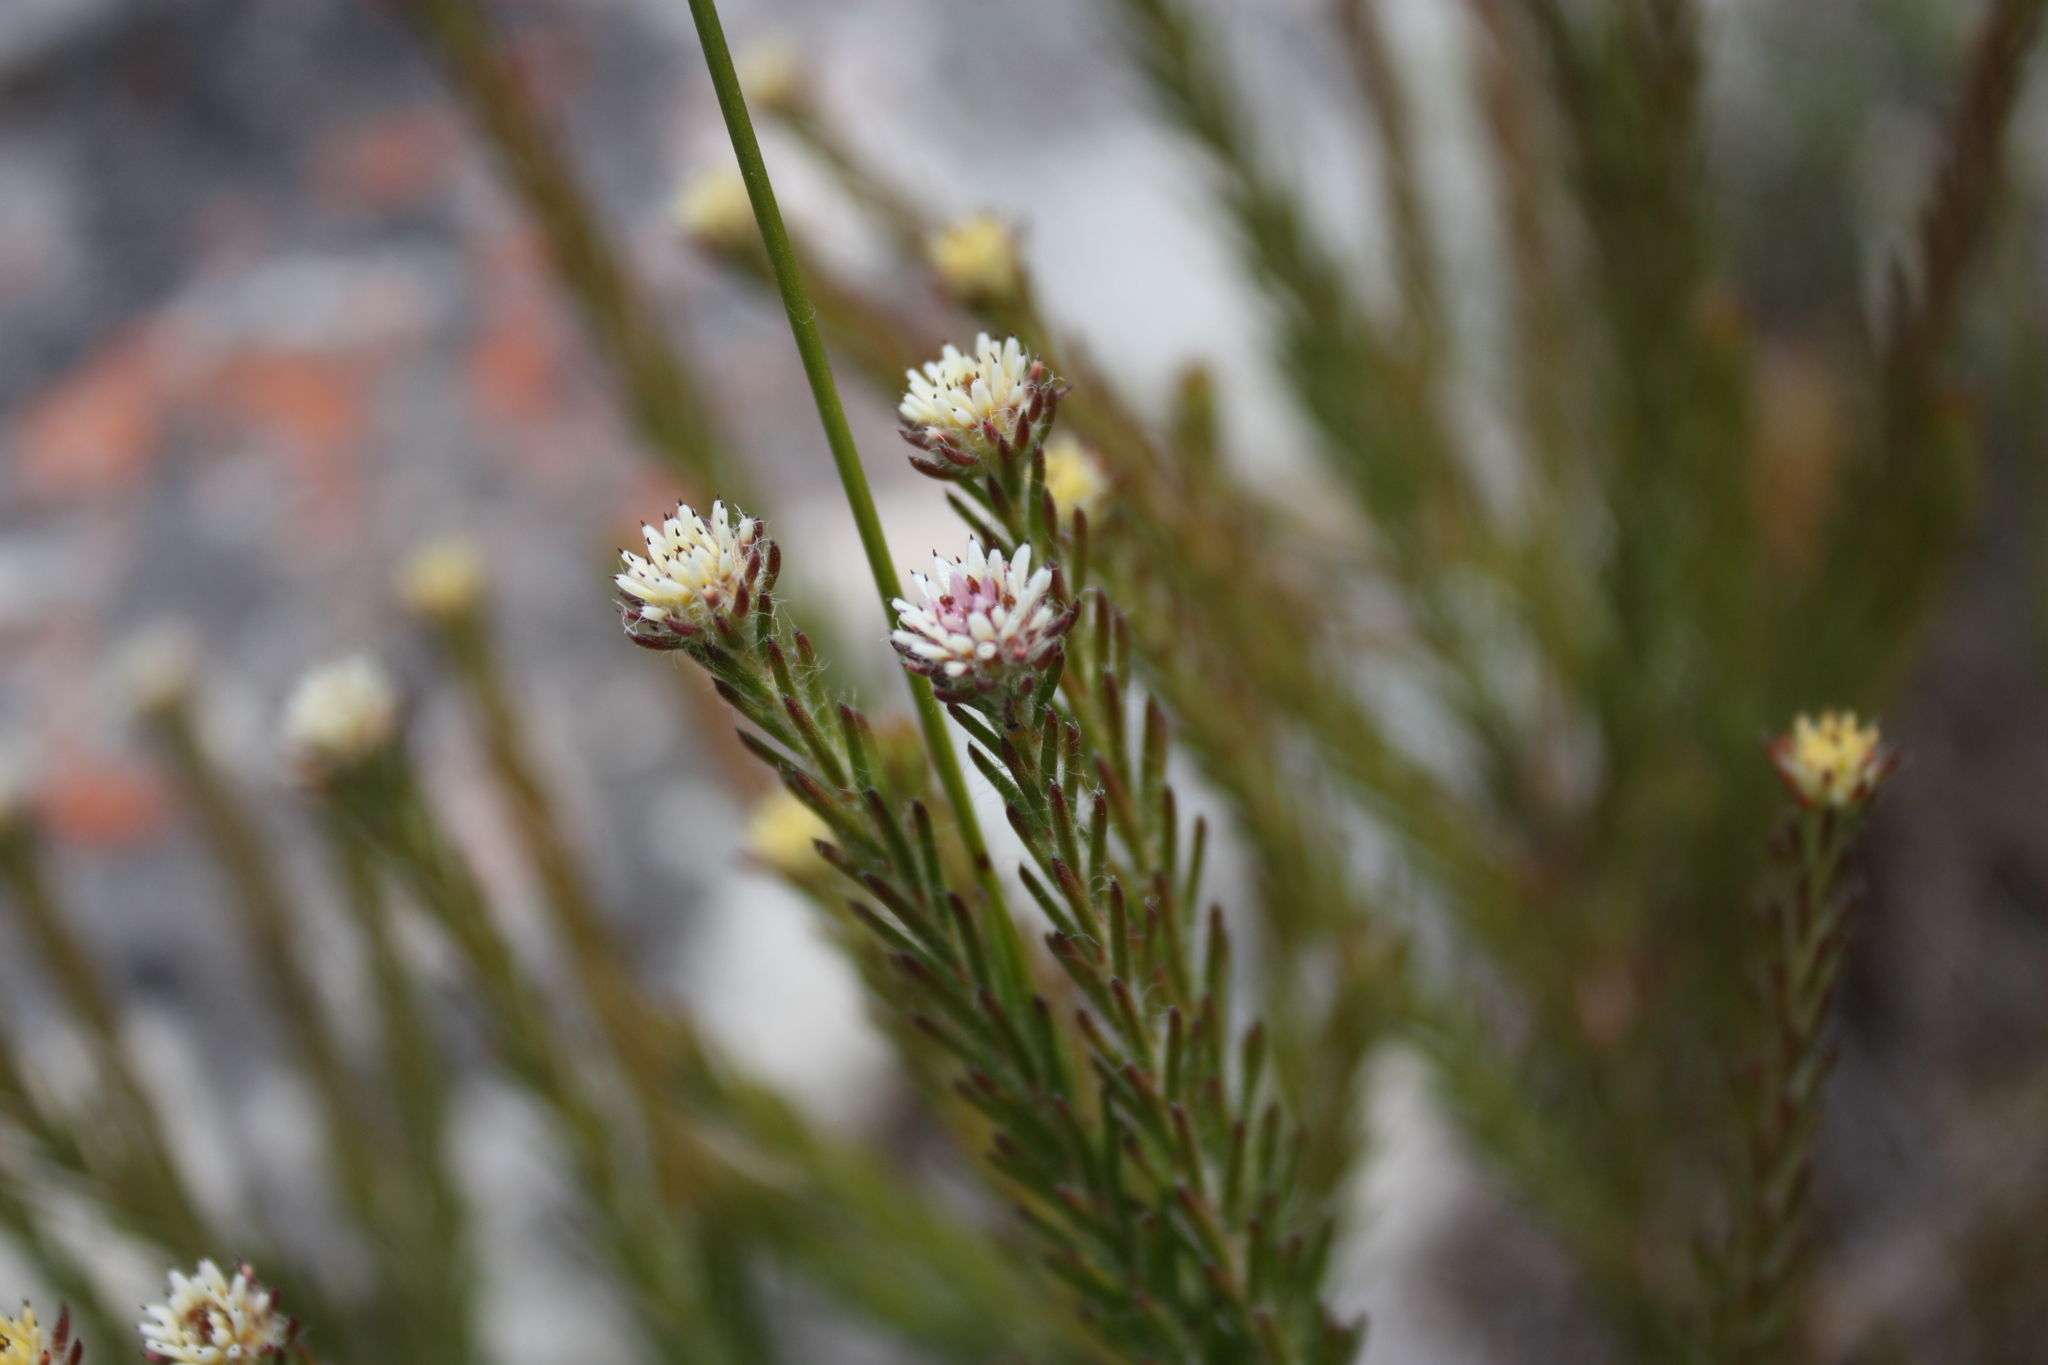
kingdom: Plantae
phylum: Tracheophyta
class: Magnoliopsida
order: Bruniales
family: Bruniaceae
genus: Staavia
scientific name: Staavia radiata
